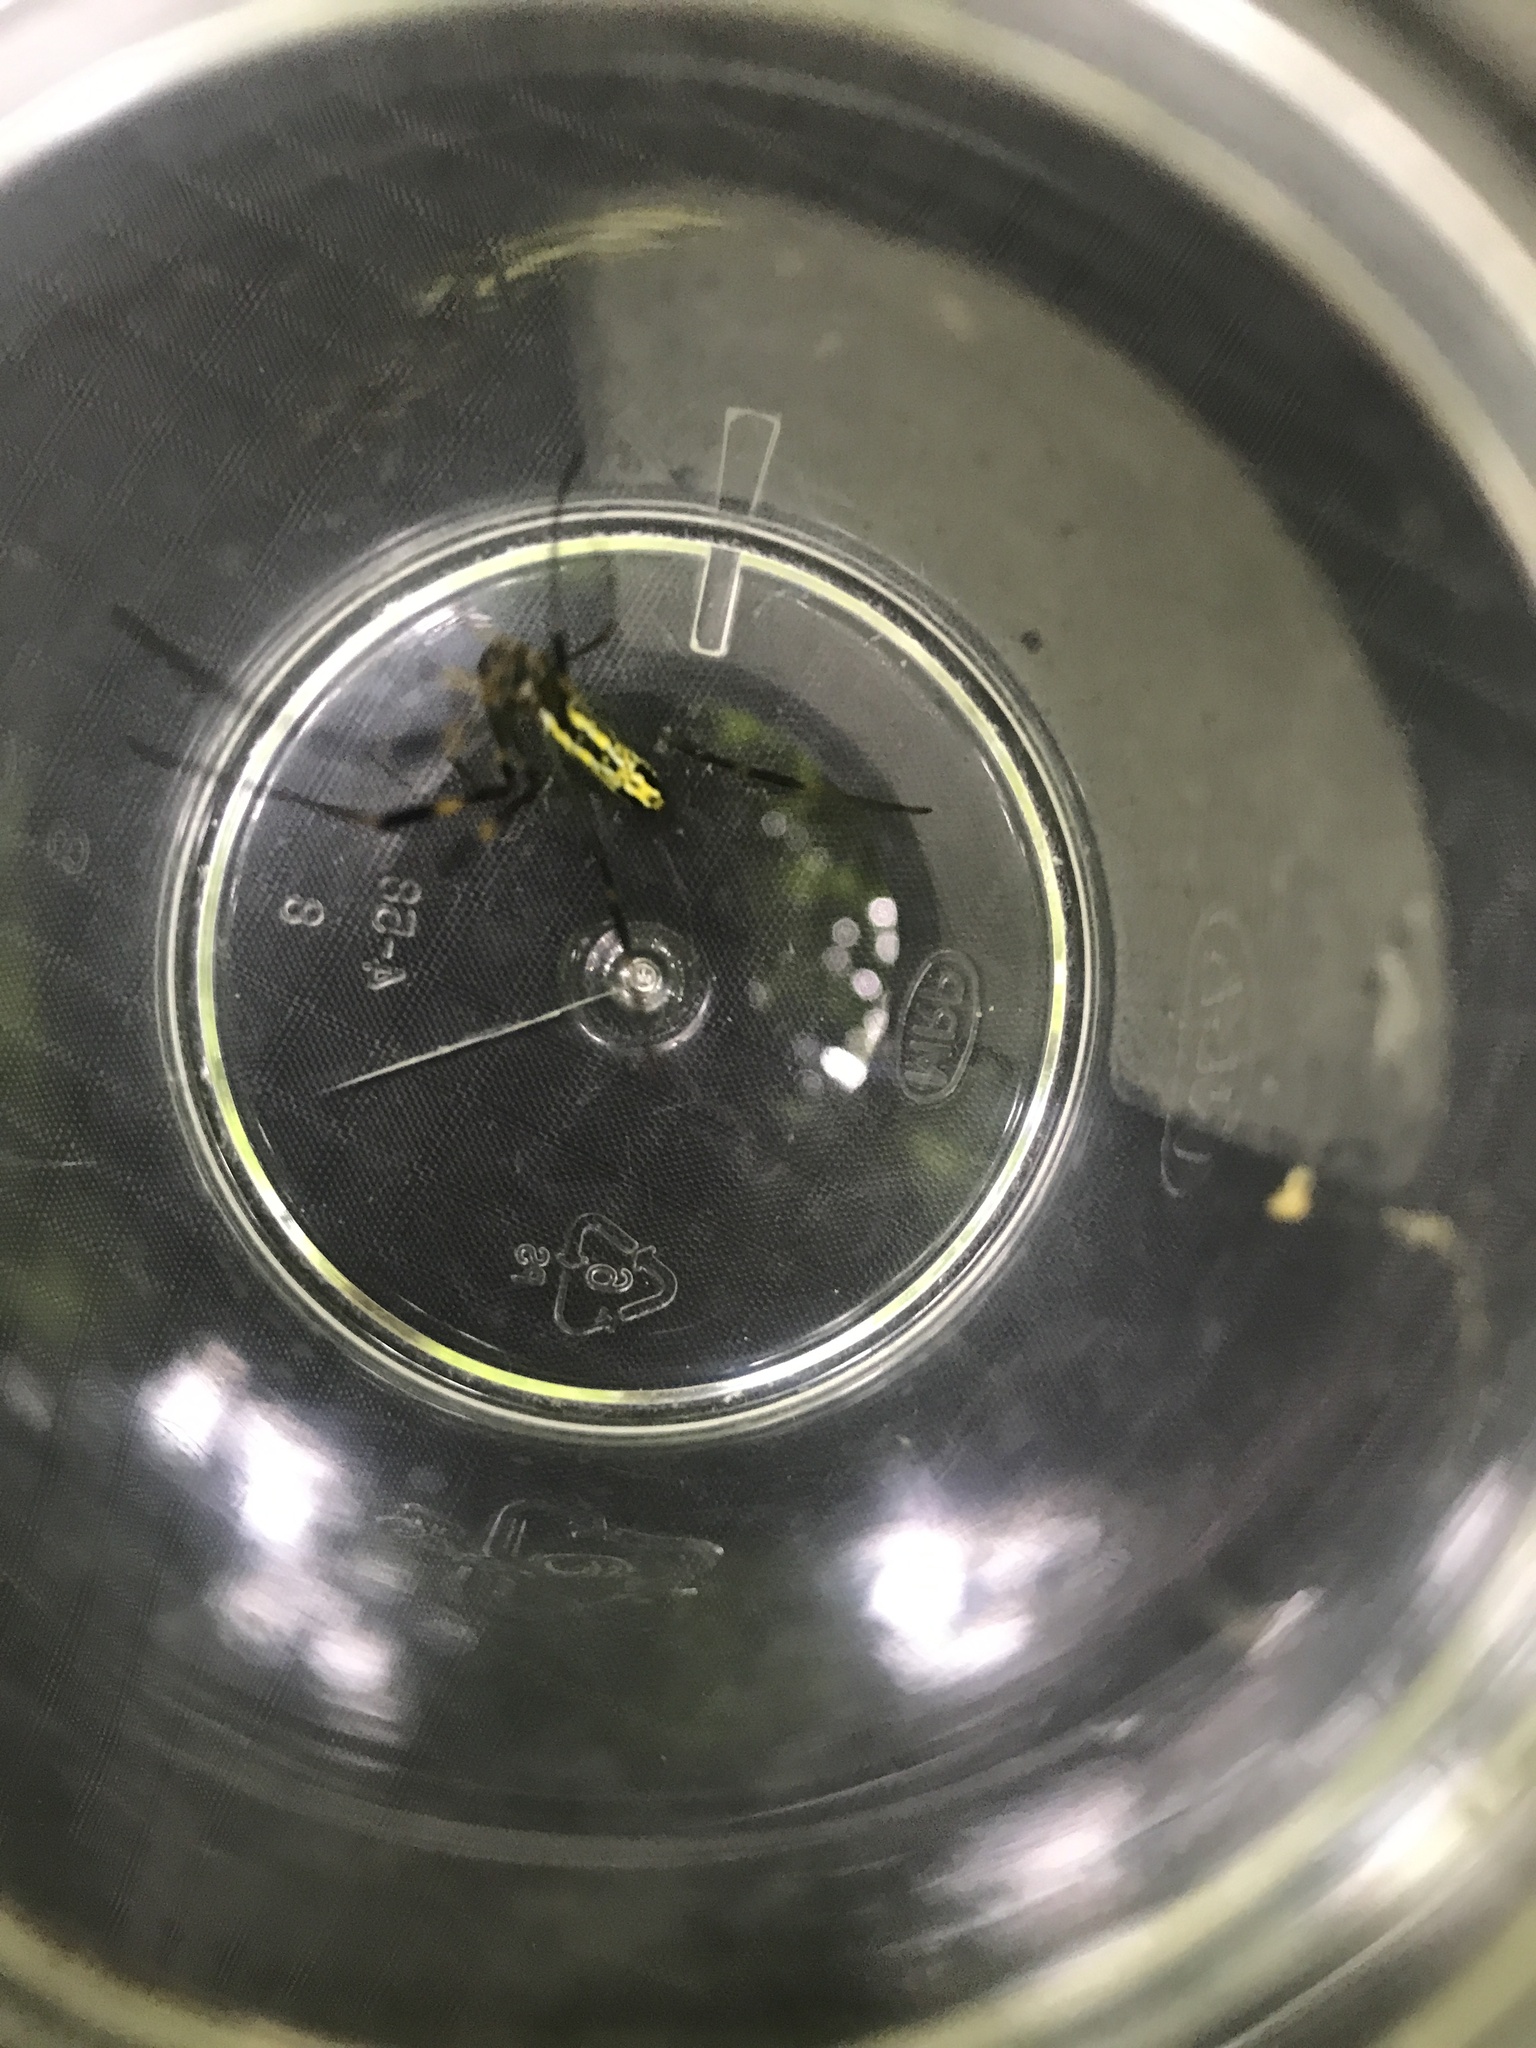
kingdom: Animalia
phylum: Arthropoda
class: Arachnida
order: Araneae
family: Araneidae
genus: Trichonephila
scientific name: Trichonephila clavata
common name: Jorō spider
